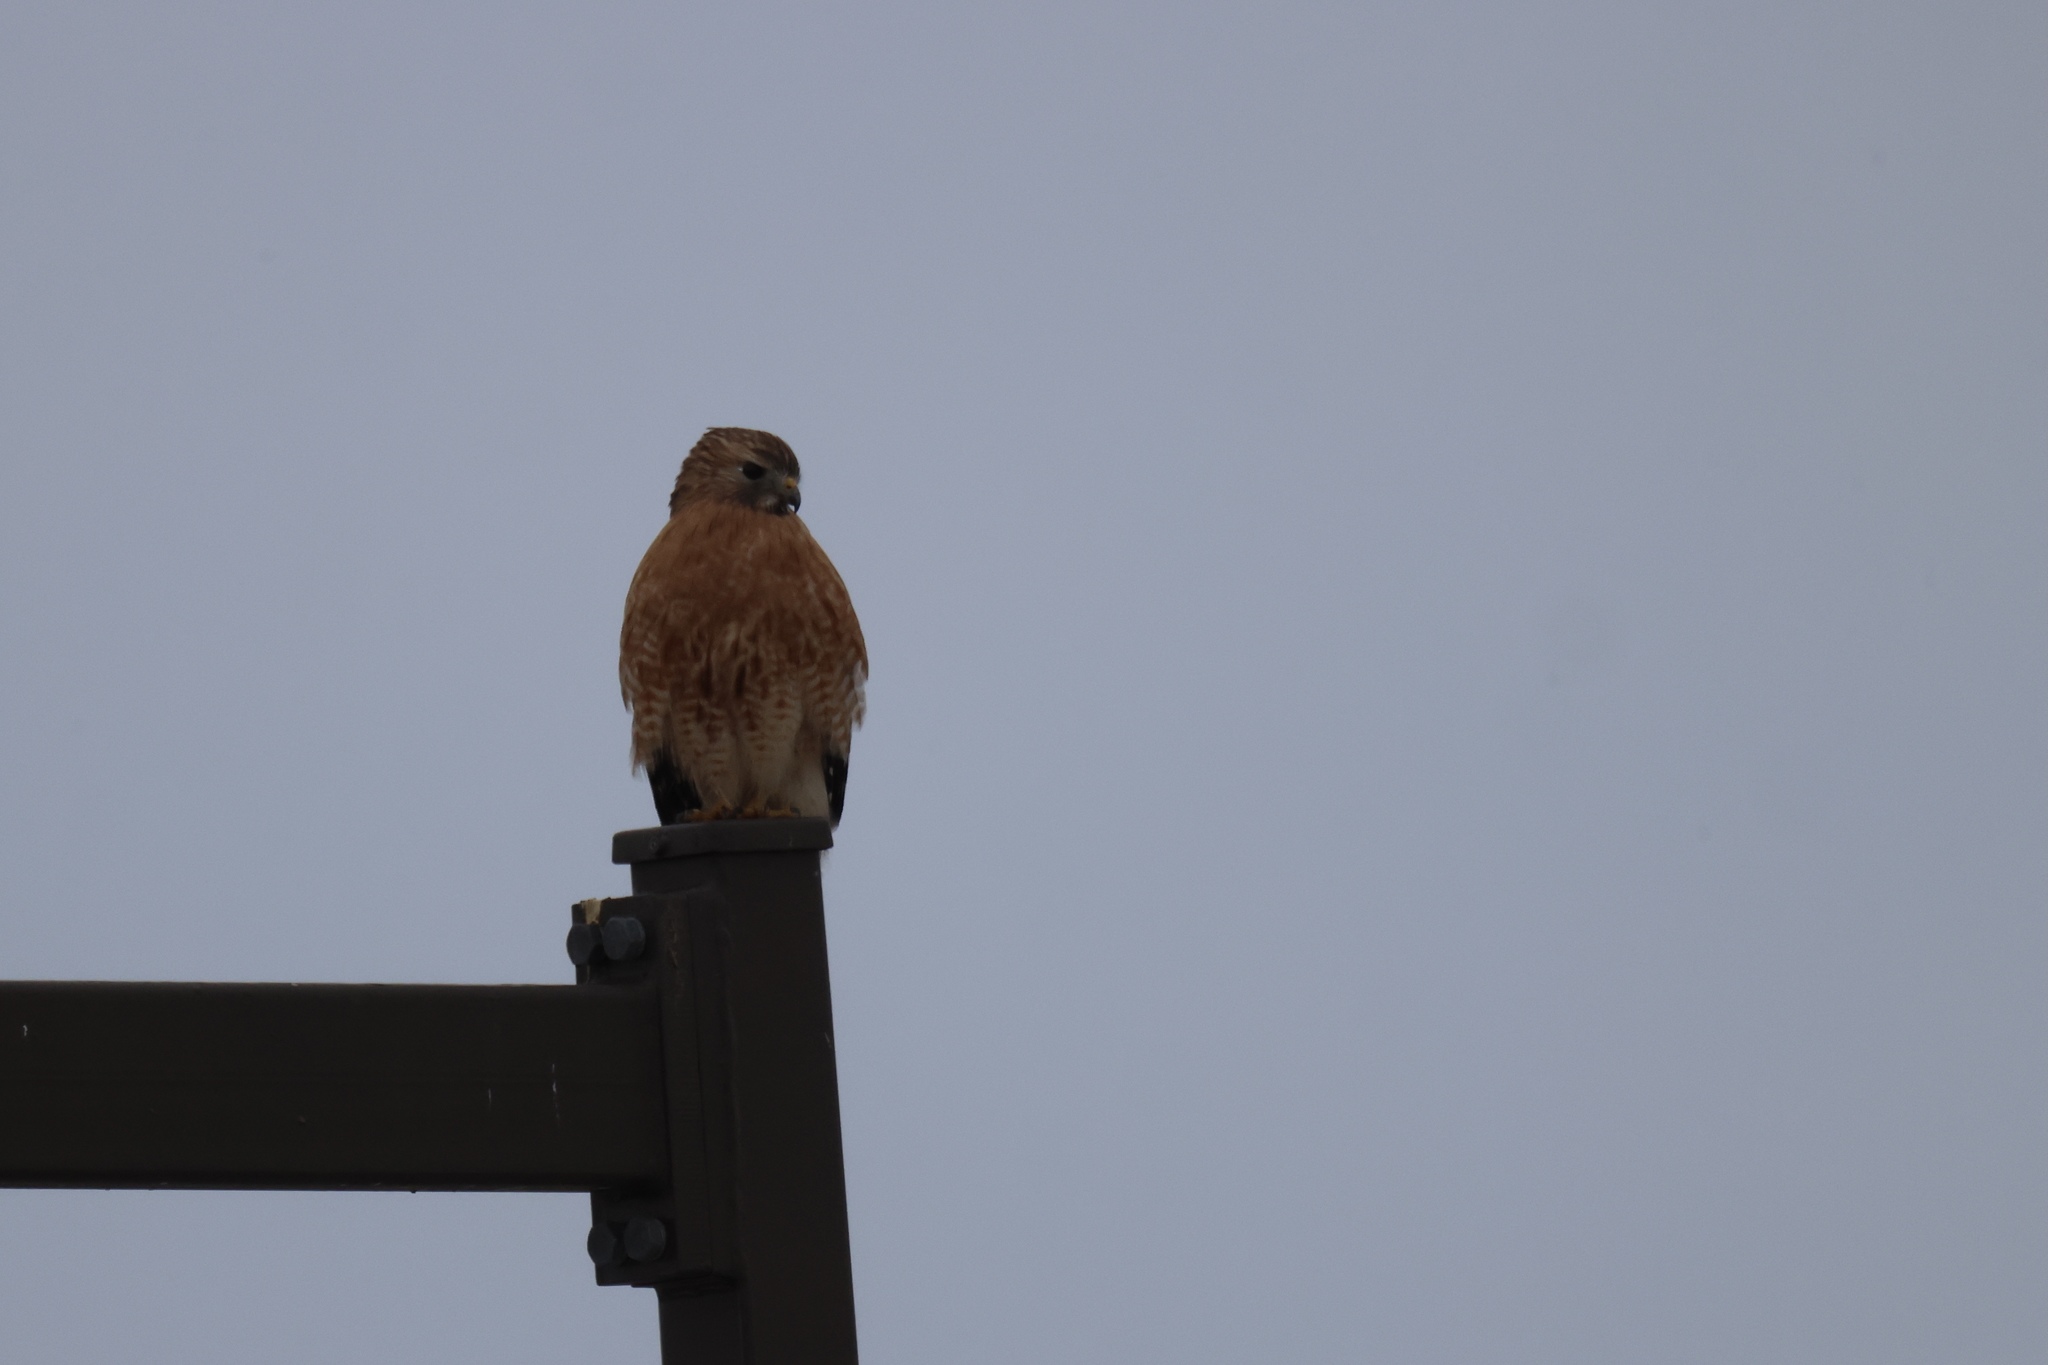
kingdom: Animalia
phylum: Chordata
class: Aves
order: Accipitriformes
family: Accipitridae
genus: Buteo
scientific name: Buteo lineatus
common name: Red-shouldered hawk
